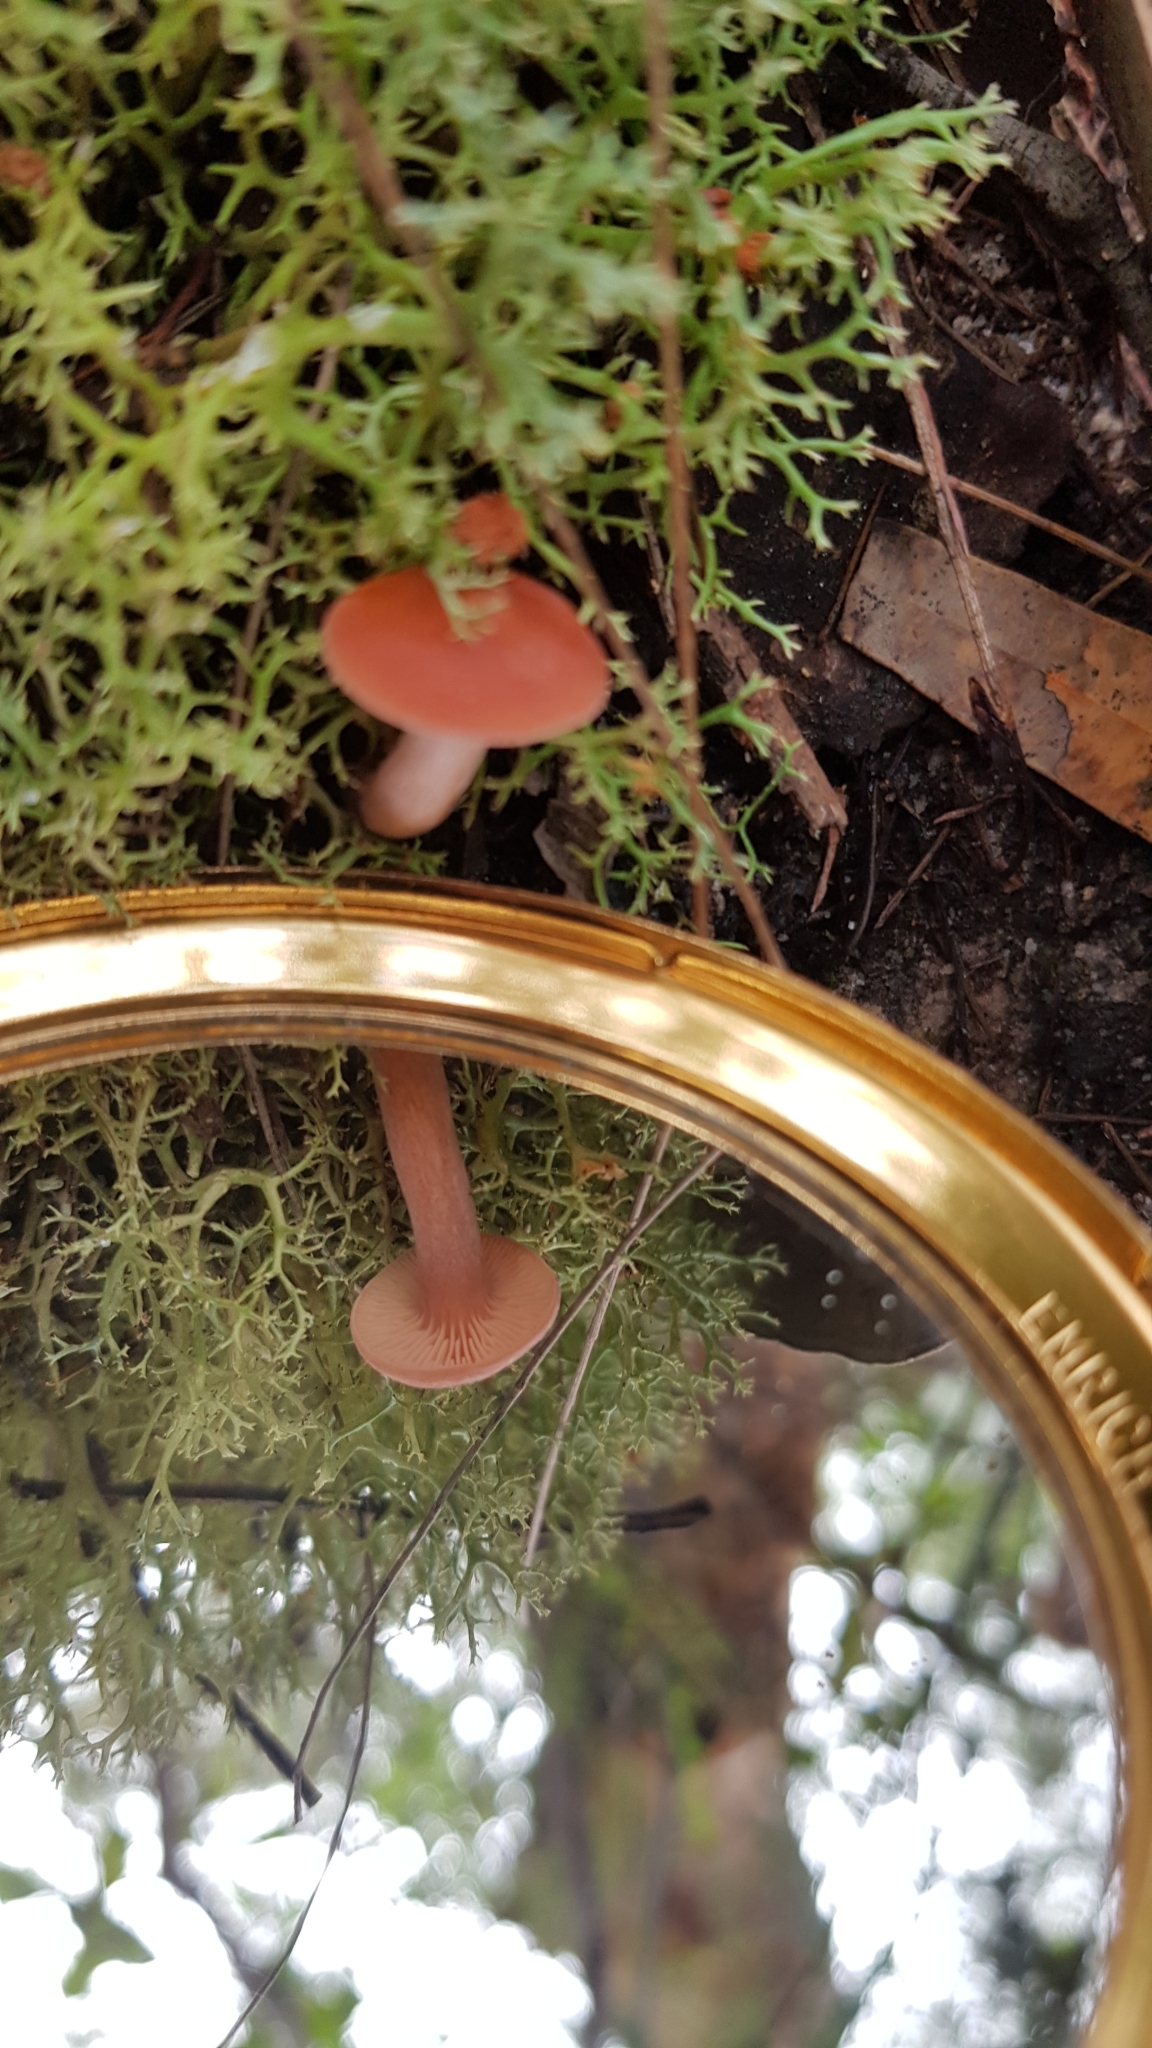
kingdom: Fungi
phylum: Basidiomycota
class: Agaricomycetes
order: Russulales
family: Russulaceae
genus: Lactarius
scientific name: Lactarius eucalypti
